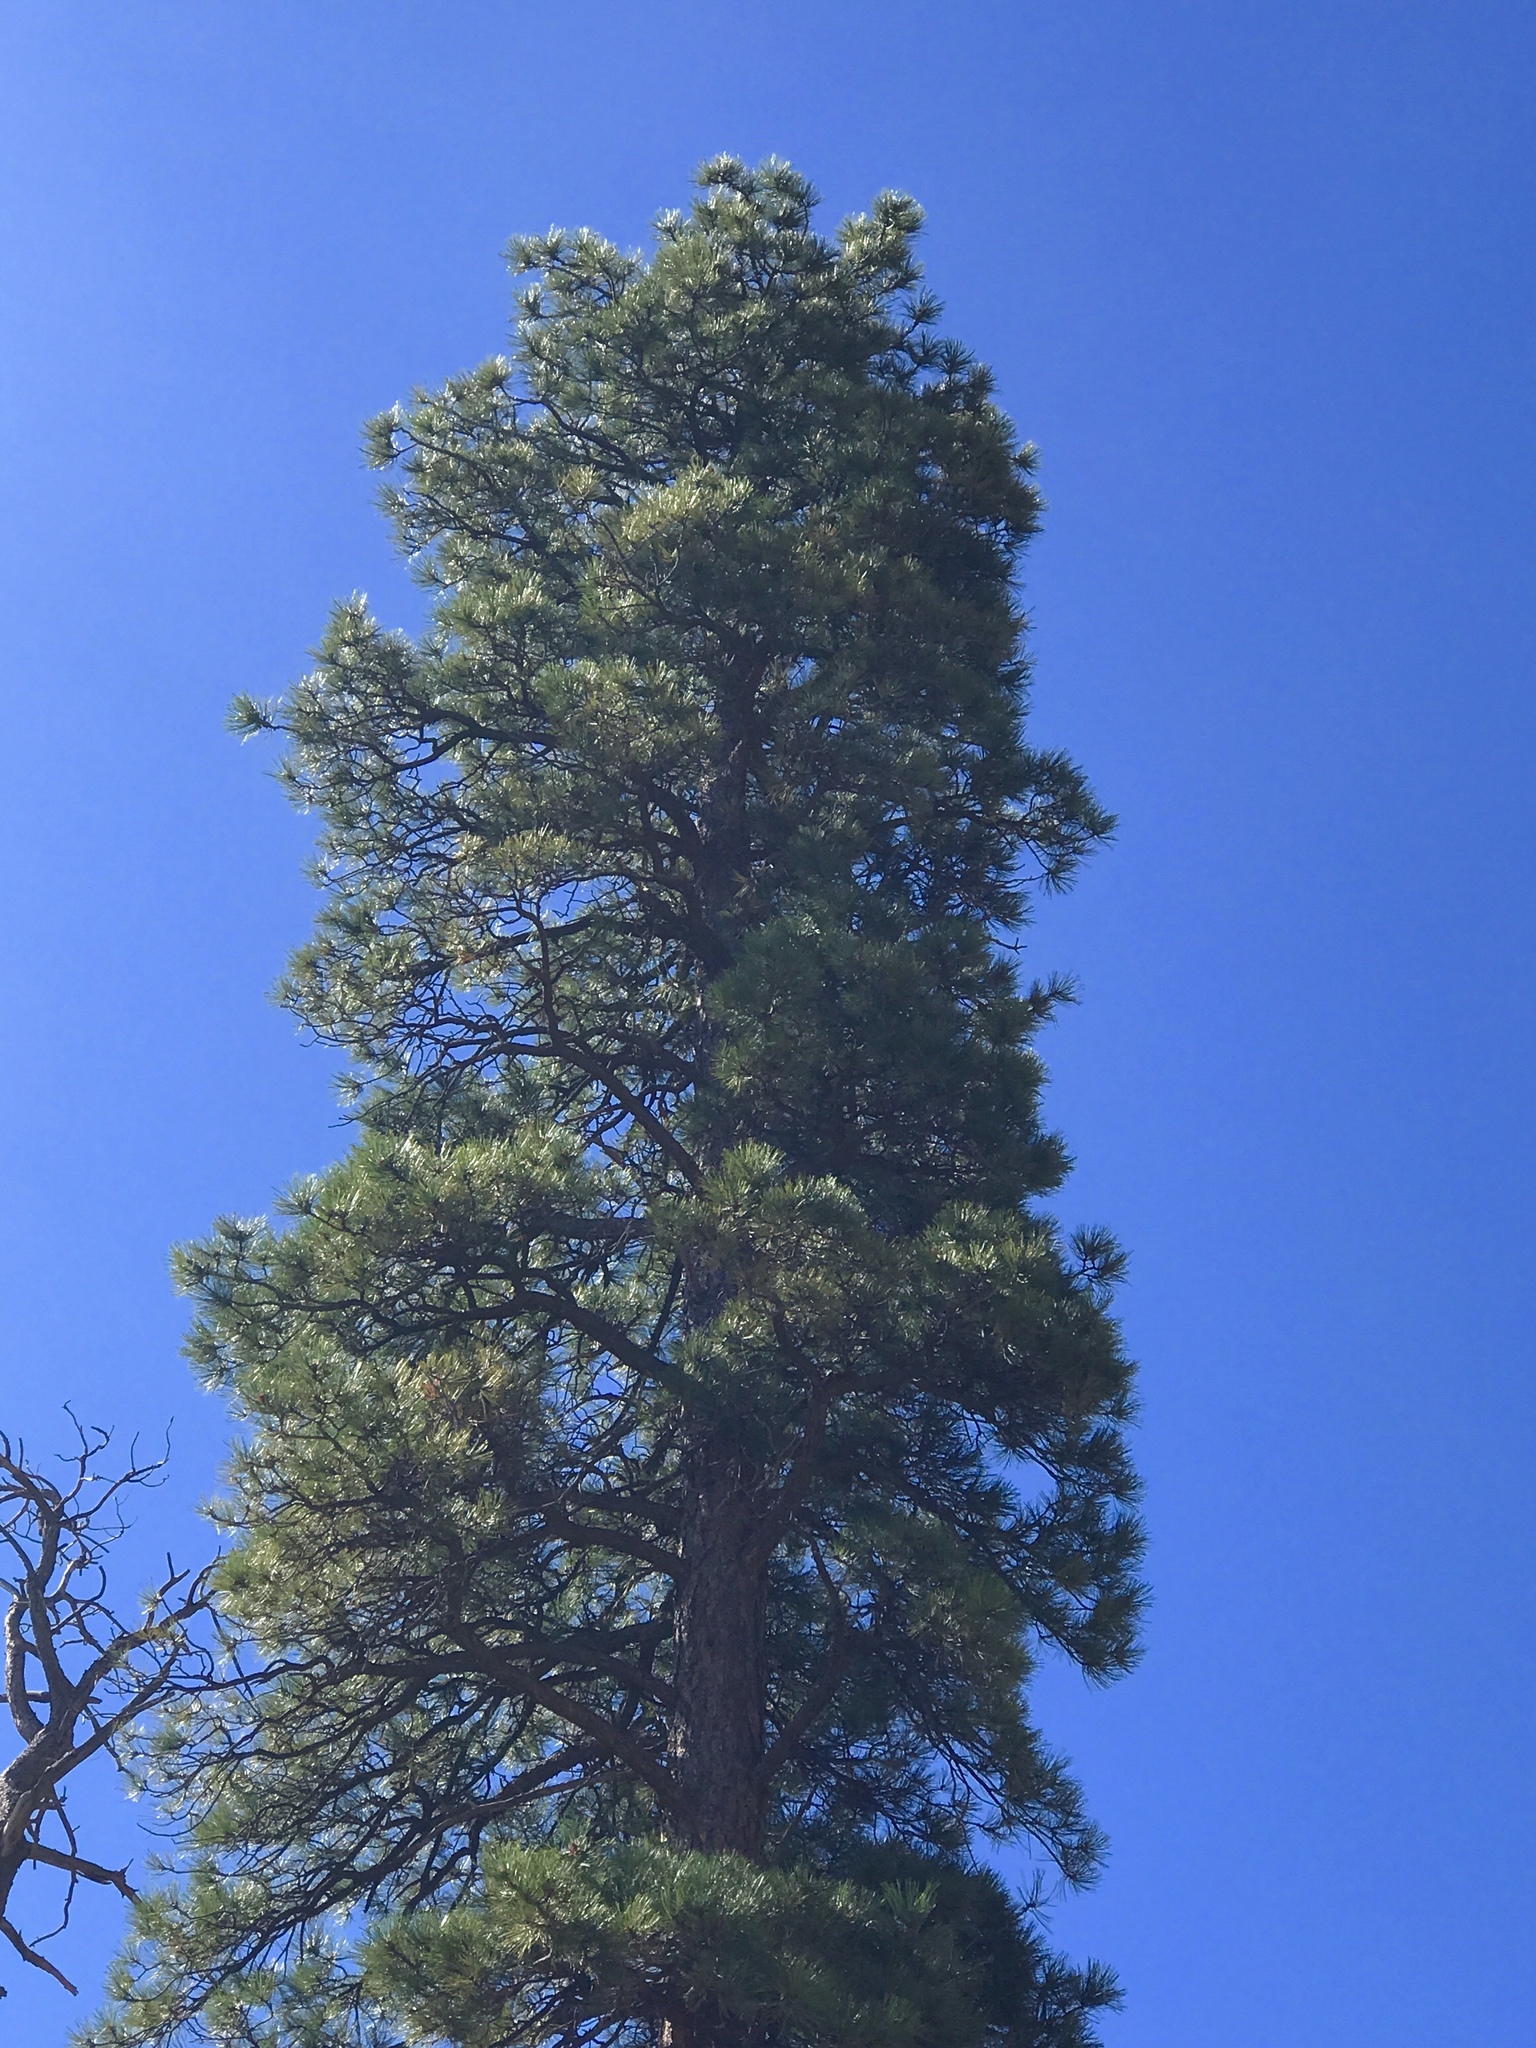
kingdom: Plantae
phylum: Tracheophyta
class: Pinopsida
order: Pinales
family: Pinaceae
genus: Pinus
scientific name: Pinus ponderosa
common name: Western yellow-pine
